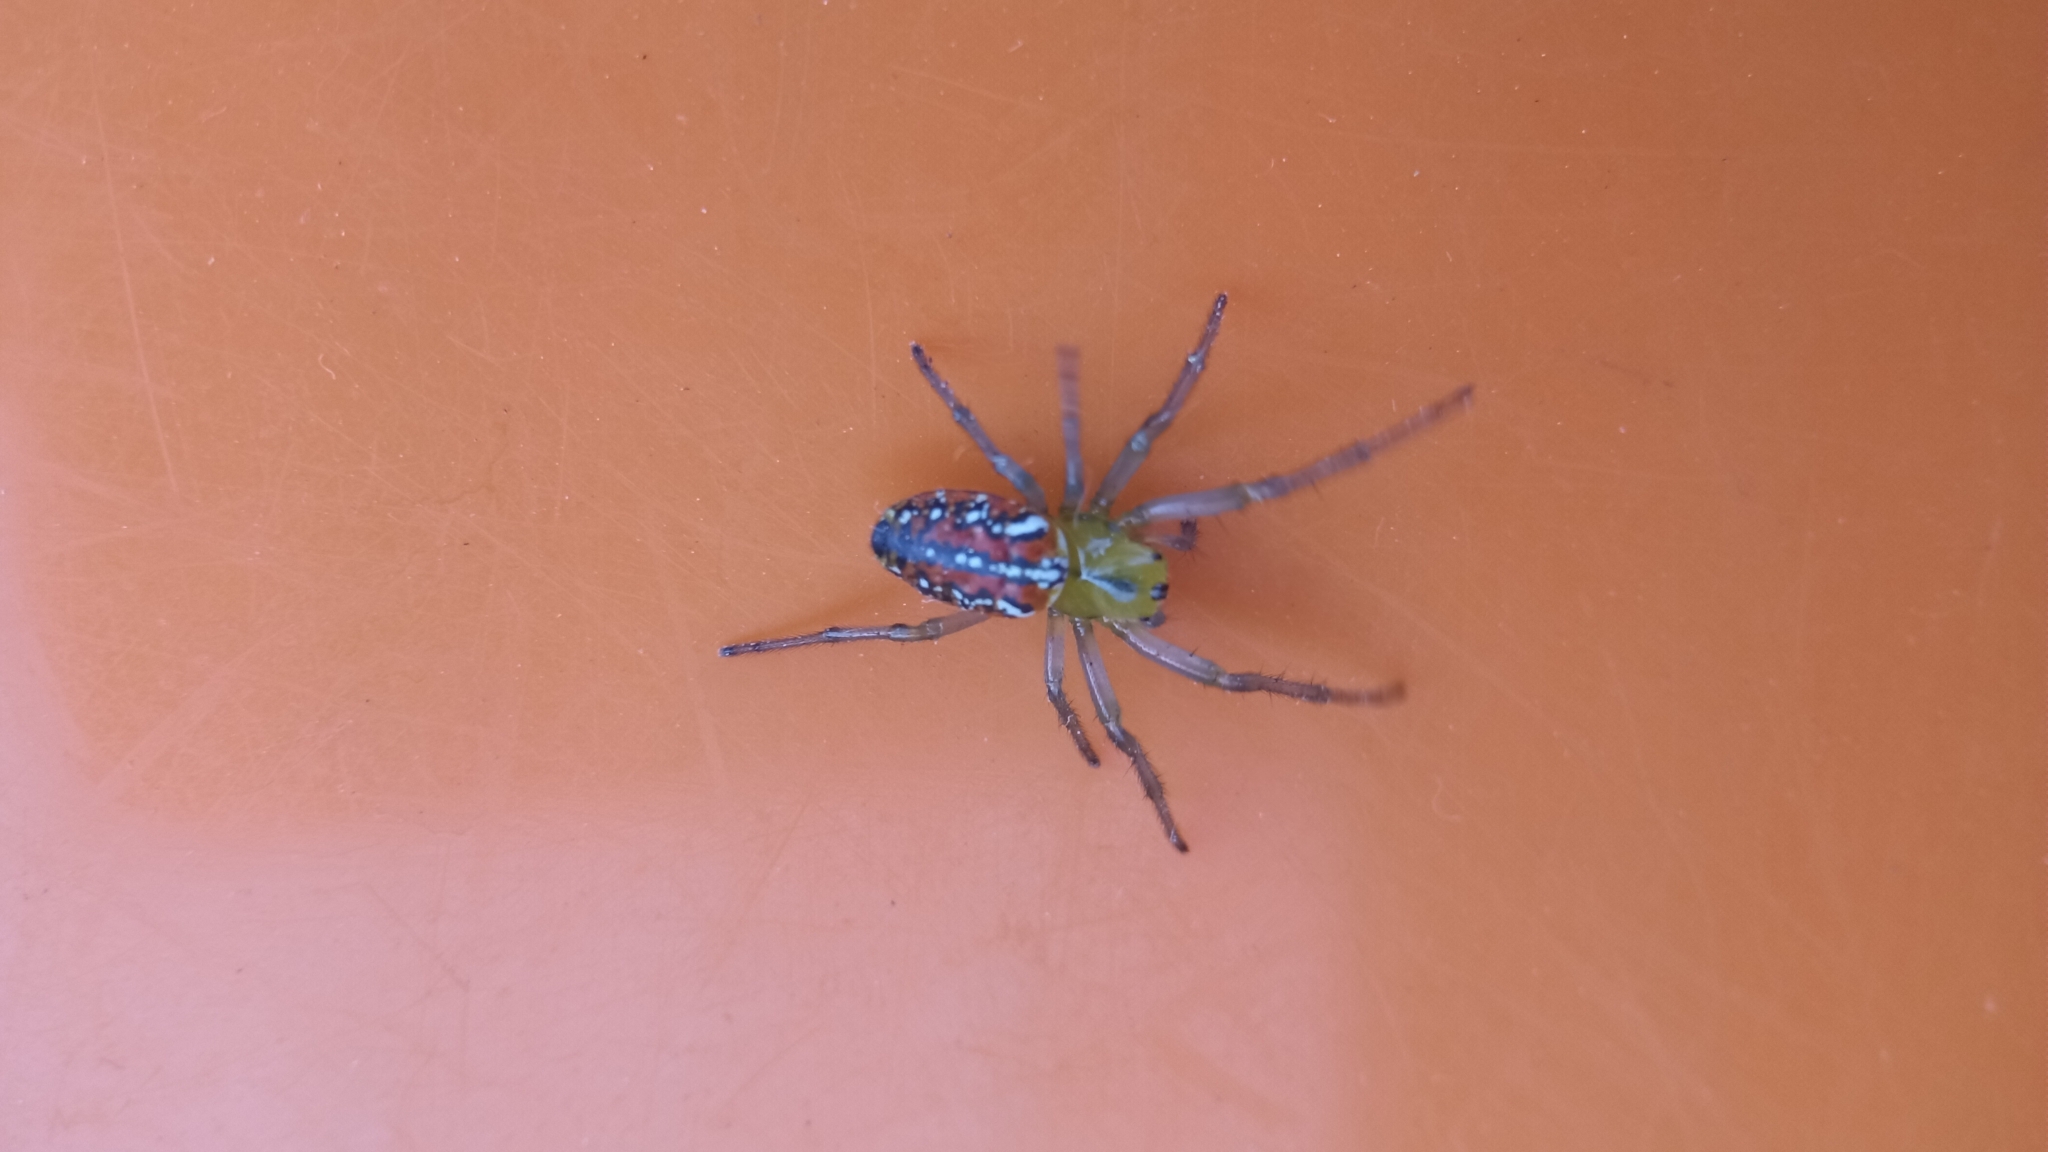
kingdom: Animalia
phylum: Arthropoda
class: Arachnida
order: Araneae
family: Araneidae
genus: Alpaida
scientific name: Alpaida variabilis
